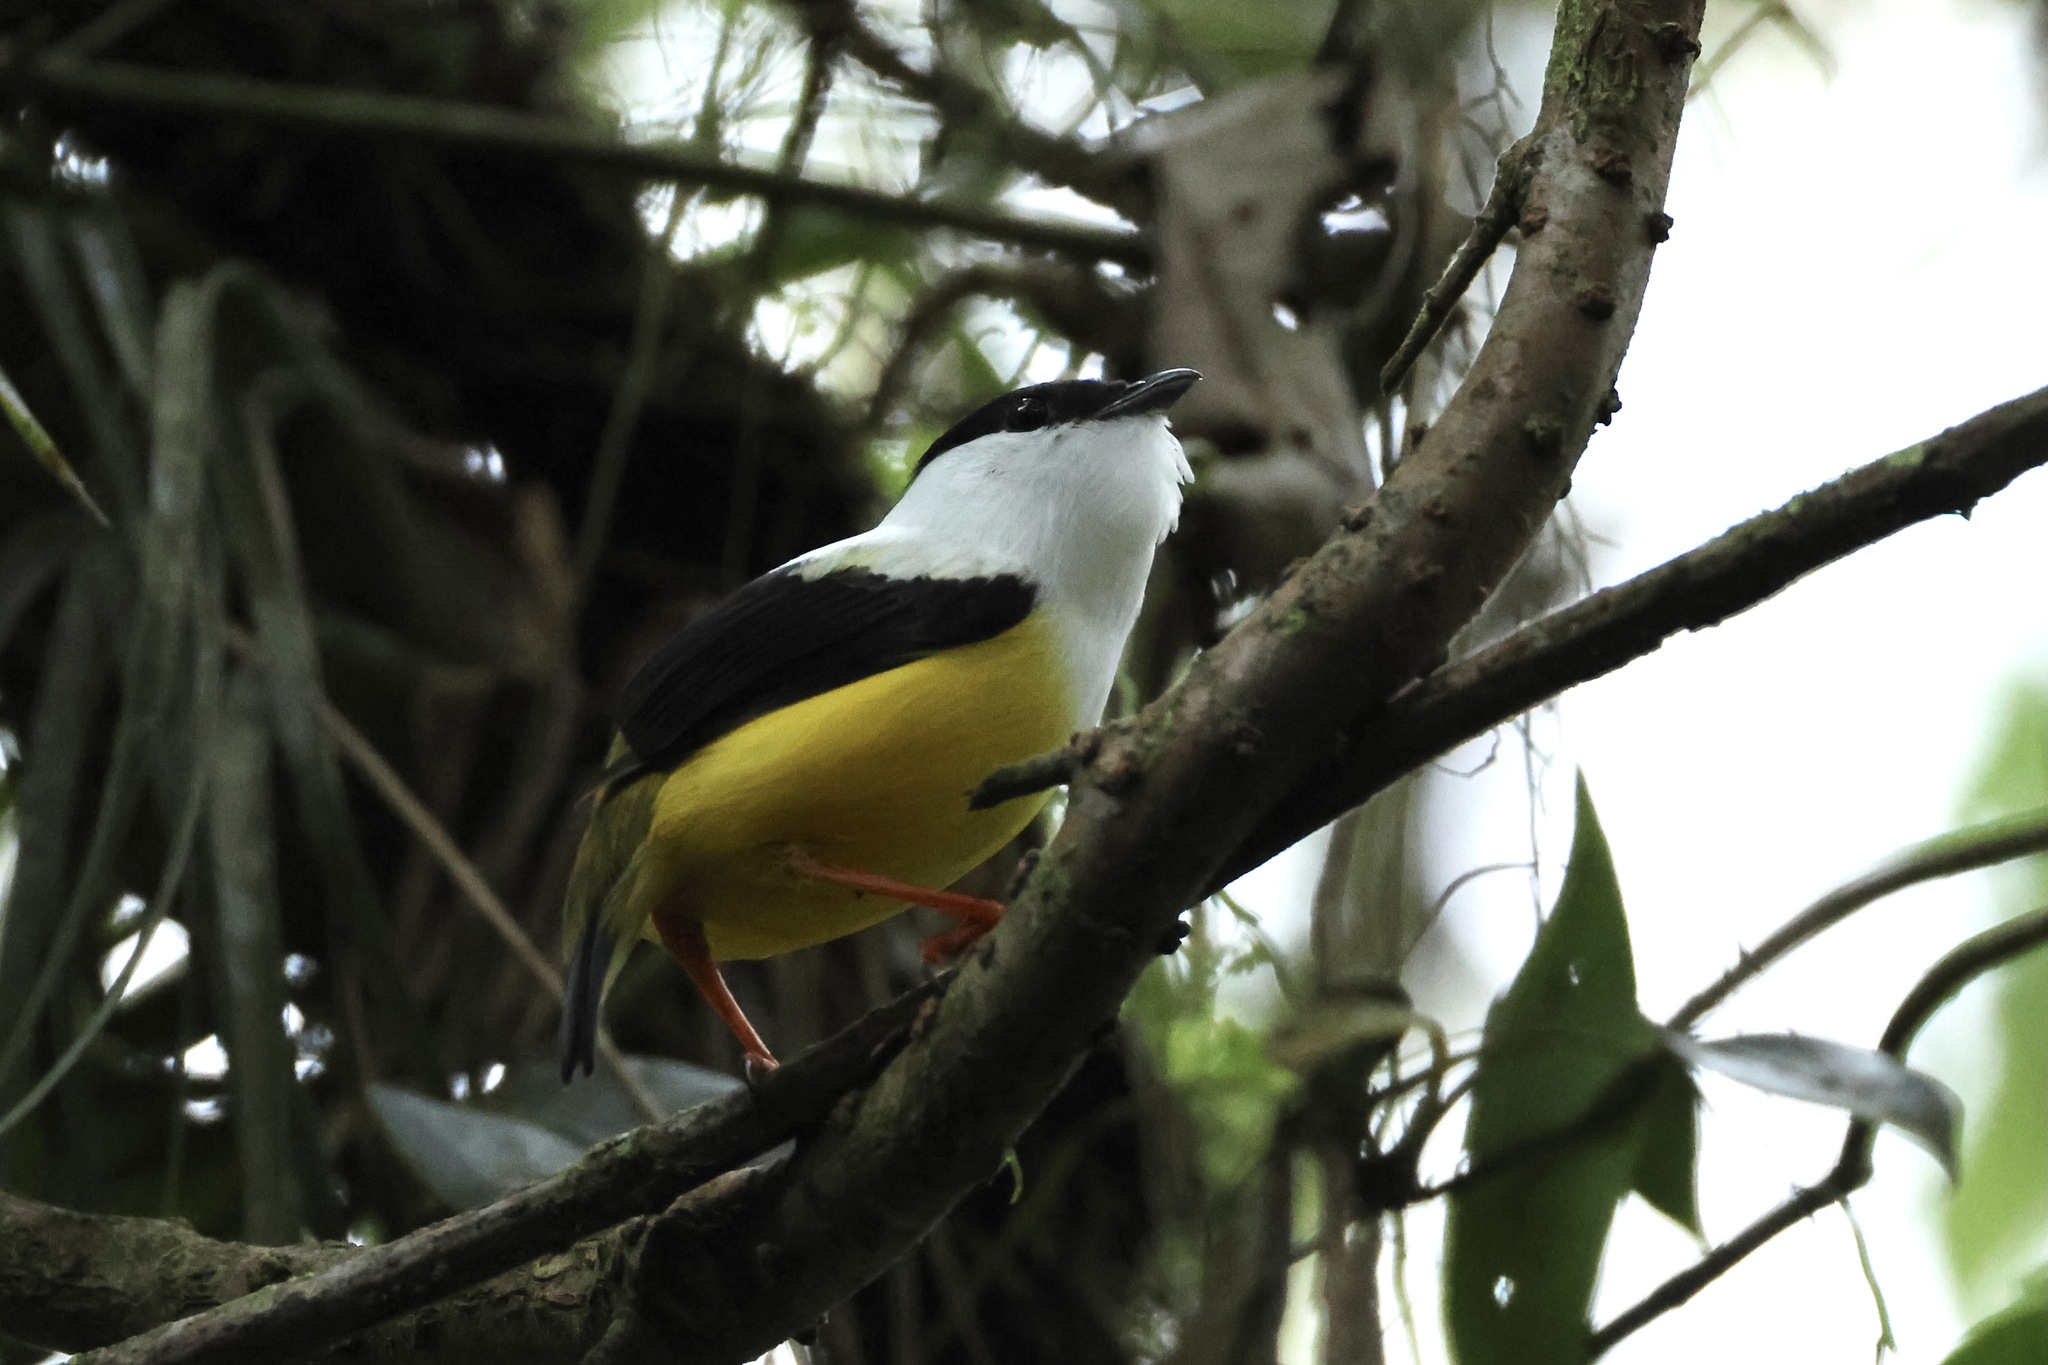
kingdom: Animalia
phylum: Chordata
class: Aves
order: Passeriformes
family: Pipridae
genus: Manacus
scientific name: Manacus candei
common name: White-collared manakin
